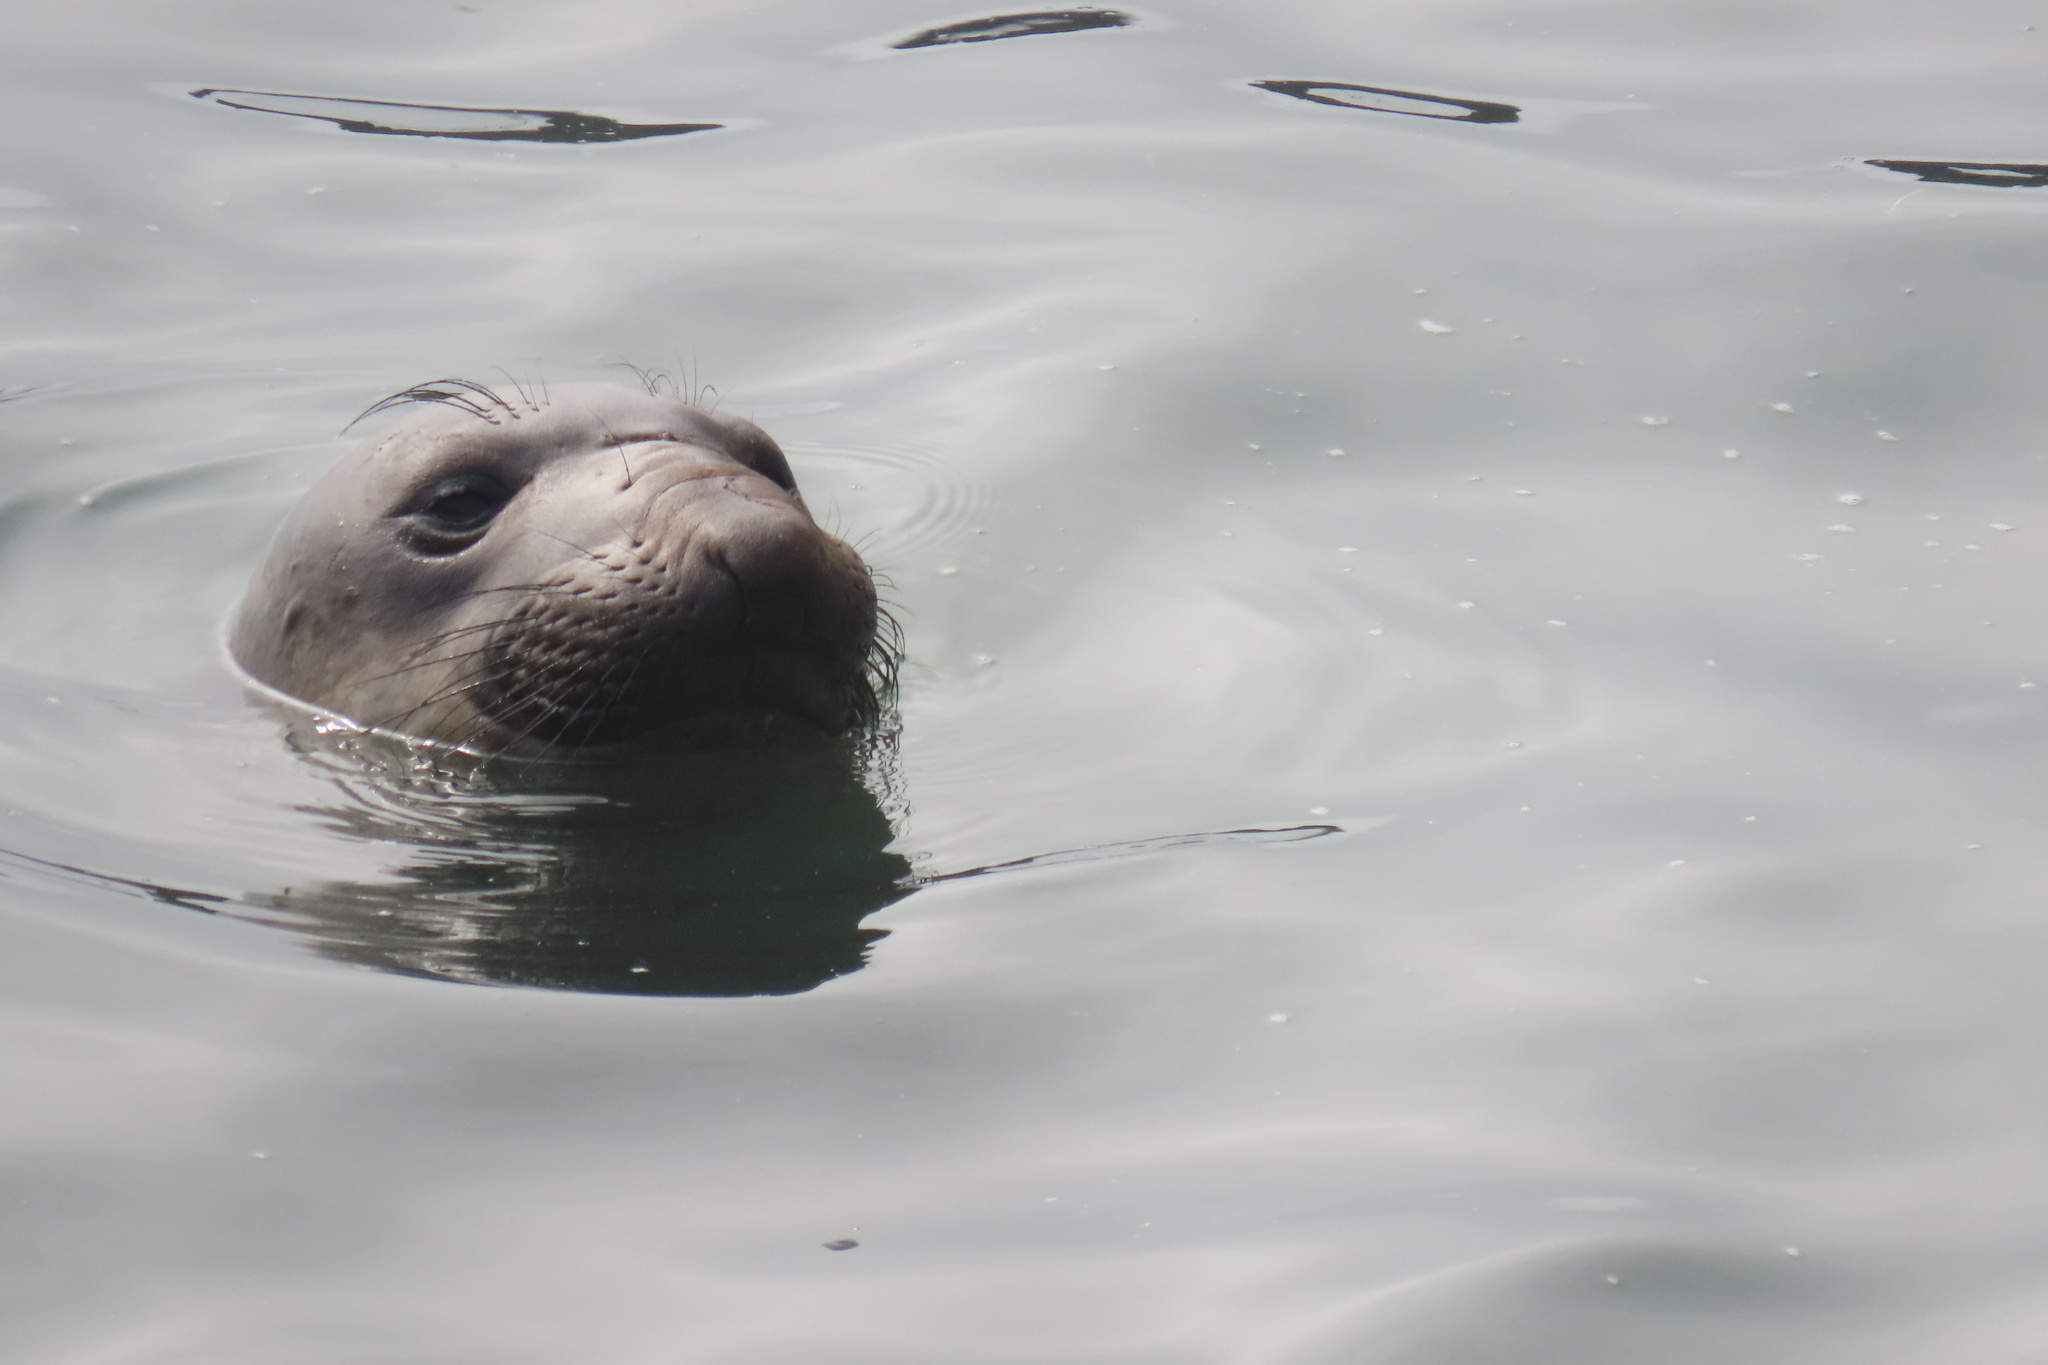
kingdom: Animalia
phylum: Chordata
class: Mammalia
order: Carnivora
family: Phocidae
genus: Mirounga
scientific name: Mirounga angustirostris
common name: Northern elephant seal
